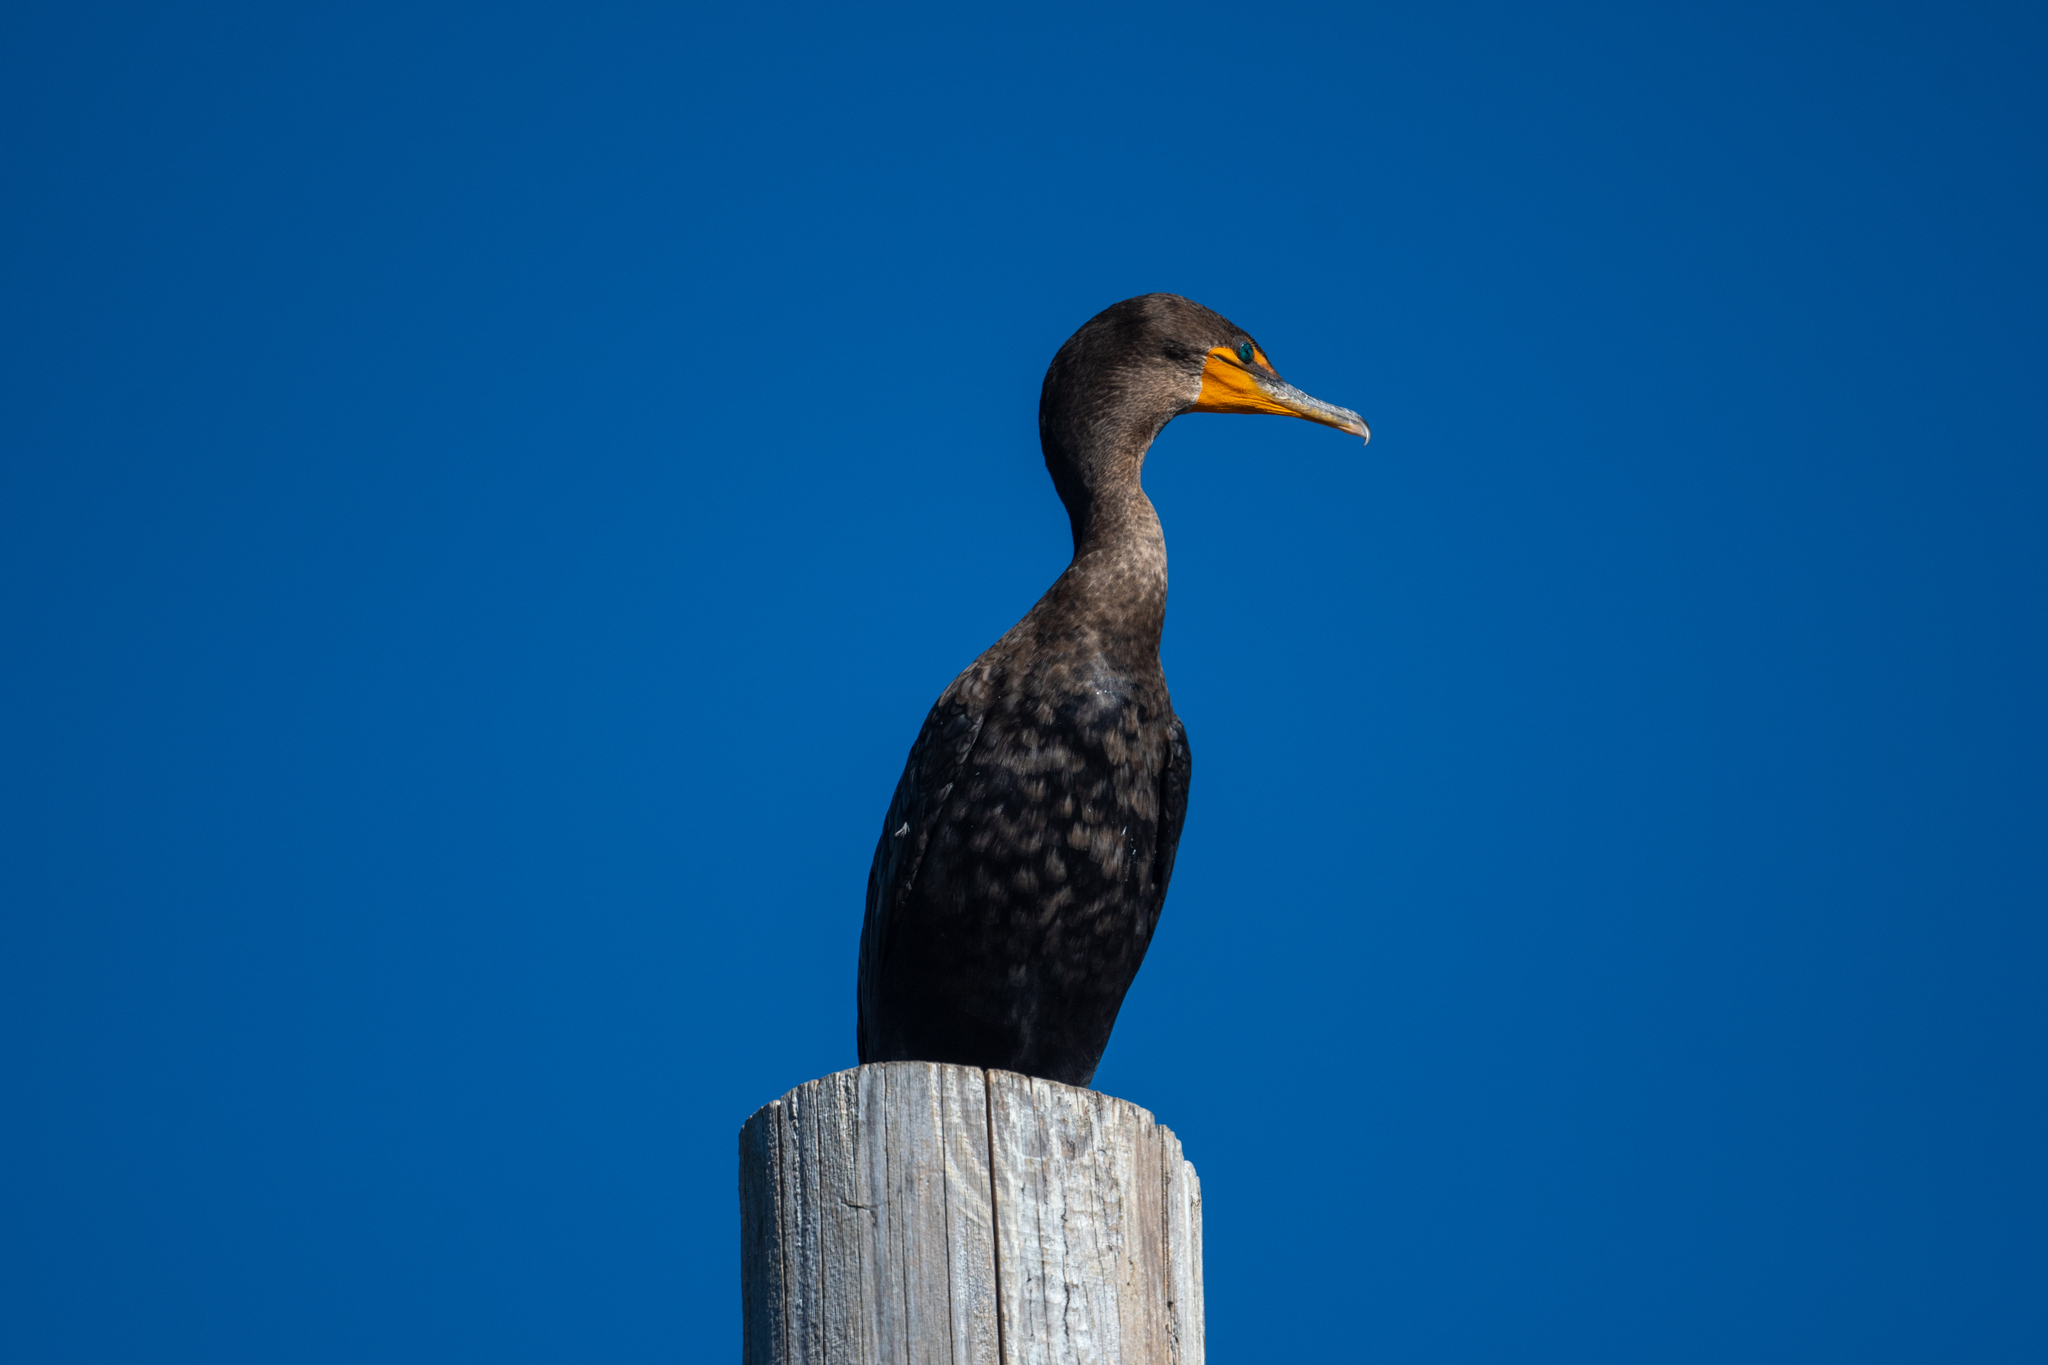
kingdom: Animalia
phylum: Chordata
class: Aves
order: Suliformes
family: Phalacrocoracidae
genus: Phalacrocorax
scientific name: Phalacrocorax auritus
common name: Double-crested cormorant
